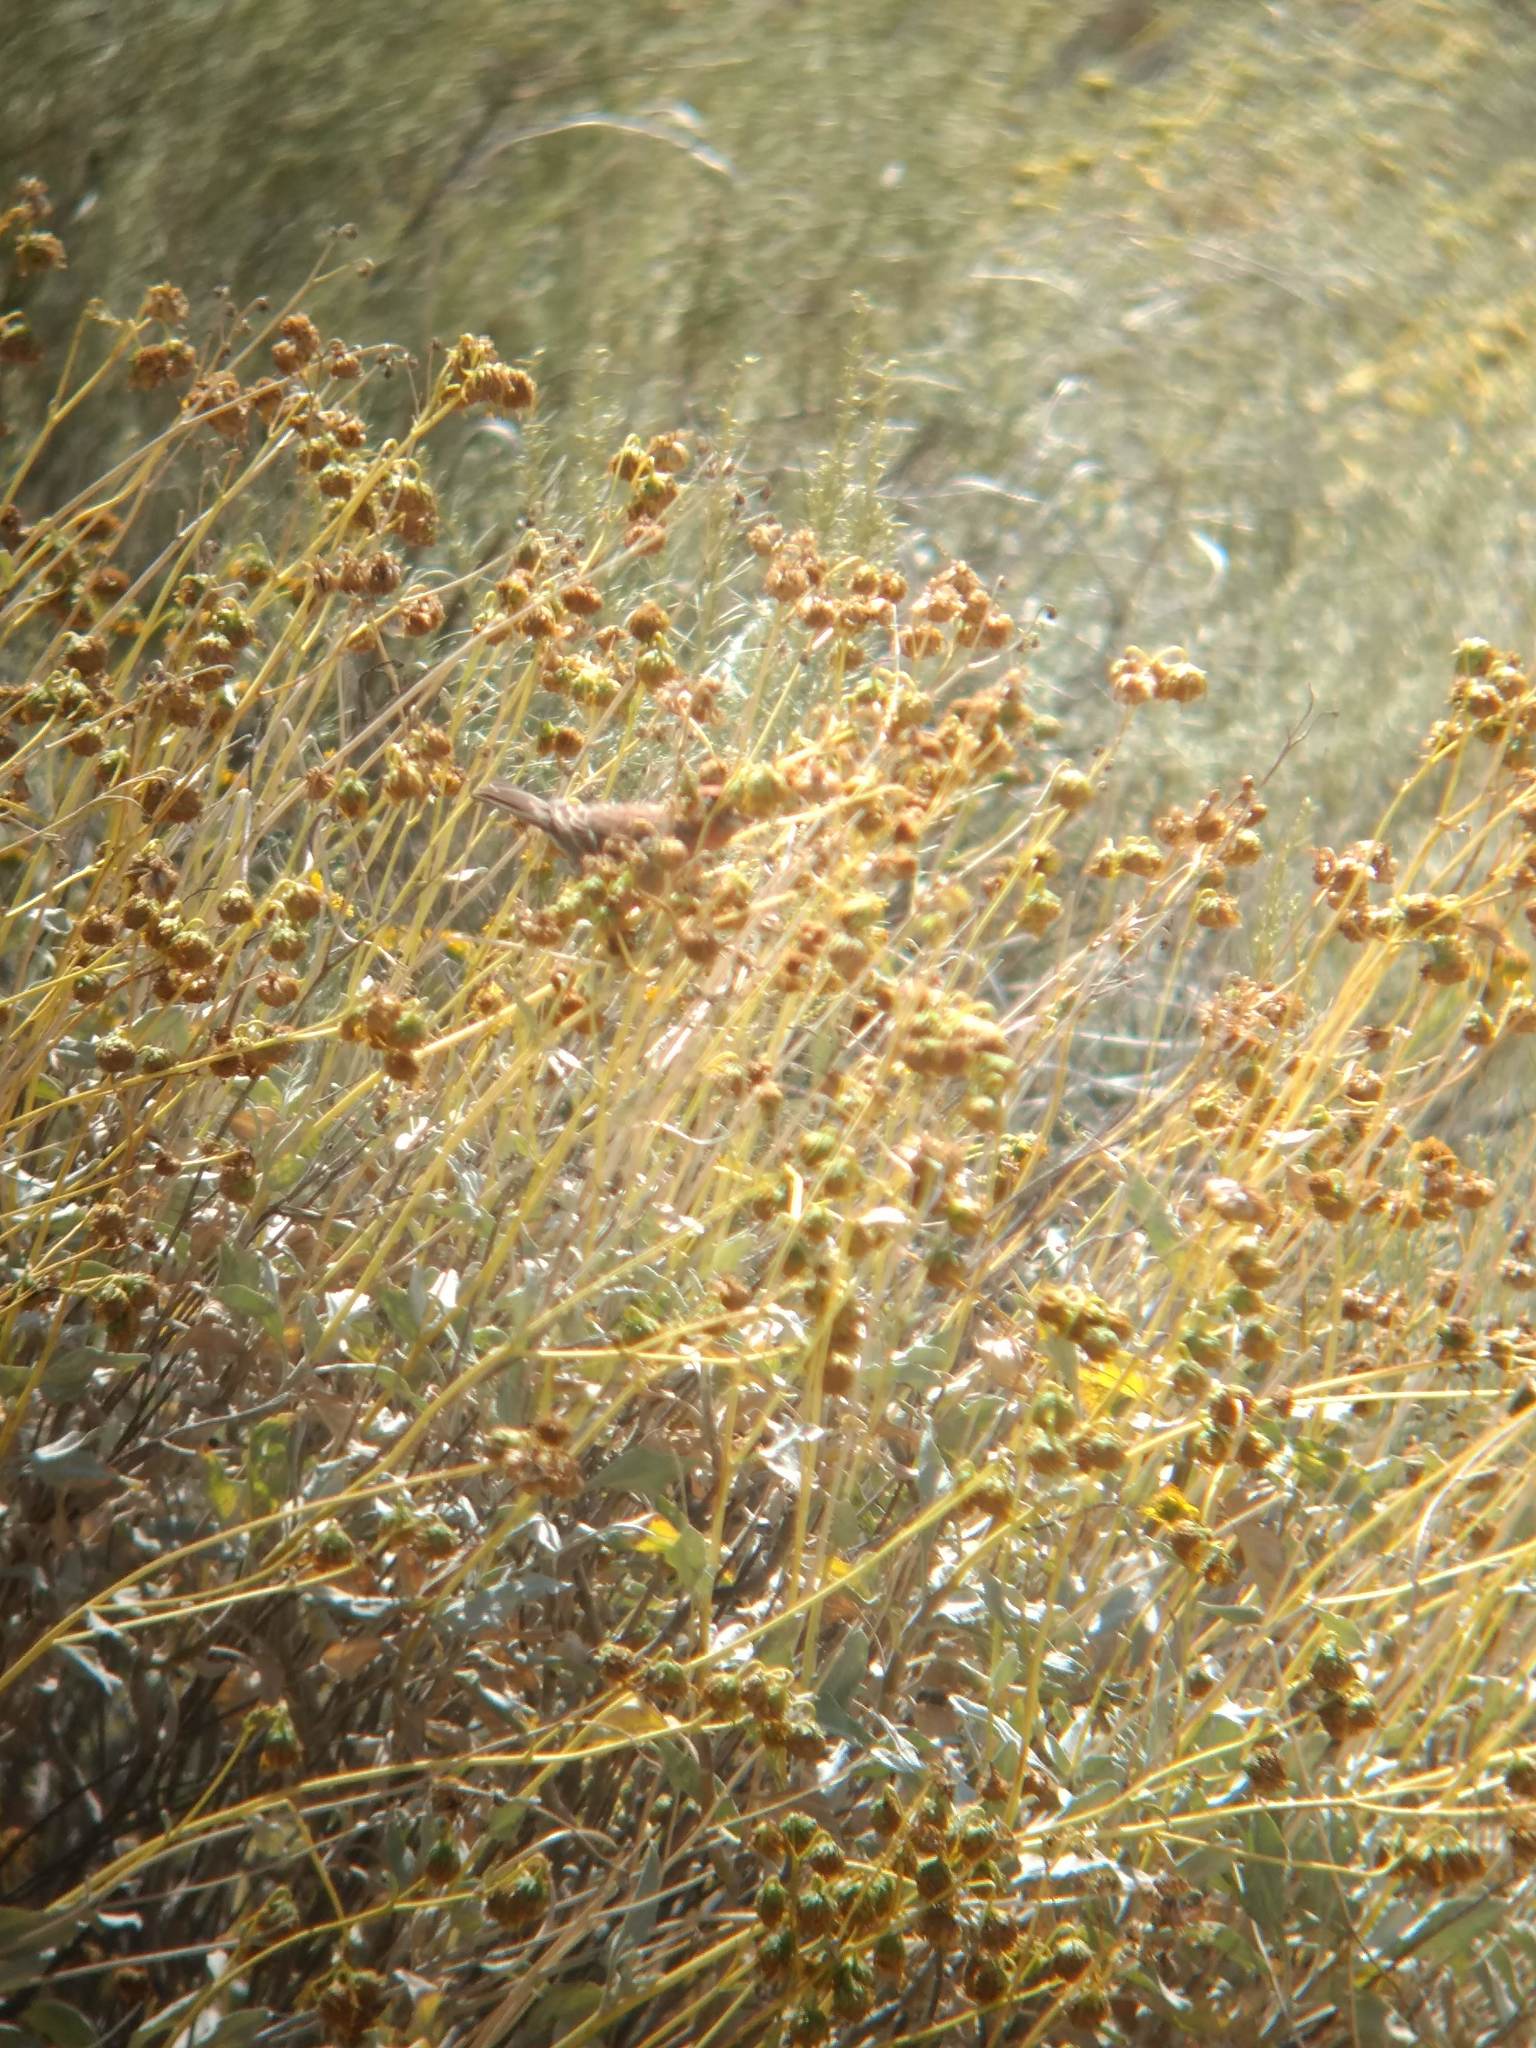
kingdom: Animalia
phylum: Chordata
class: Aves
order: Passeriformes
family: Fringillidae
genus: Haemorhous
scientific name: Haemorhous mexicanus
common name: House finch
